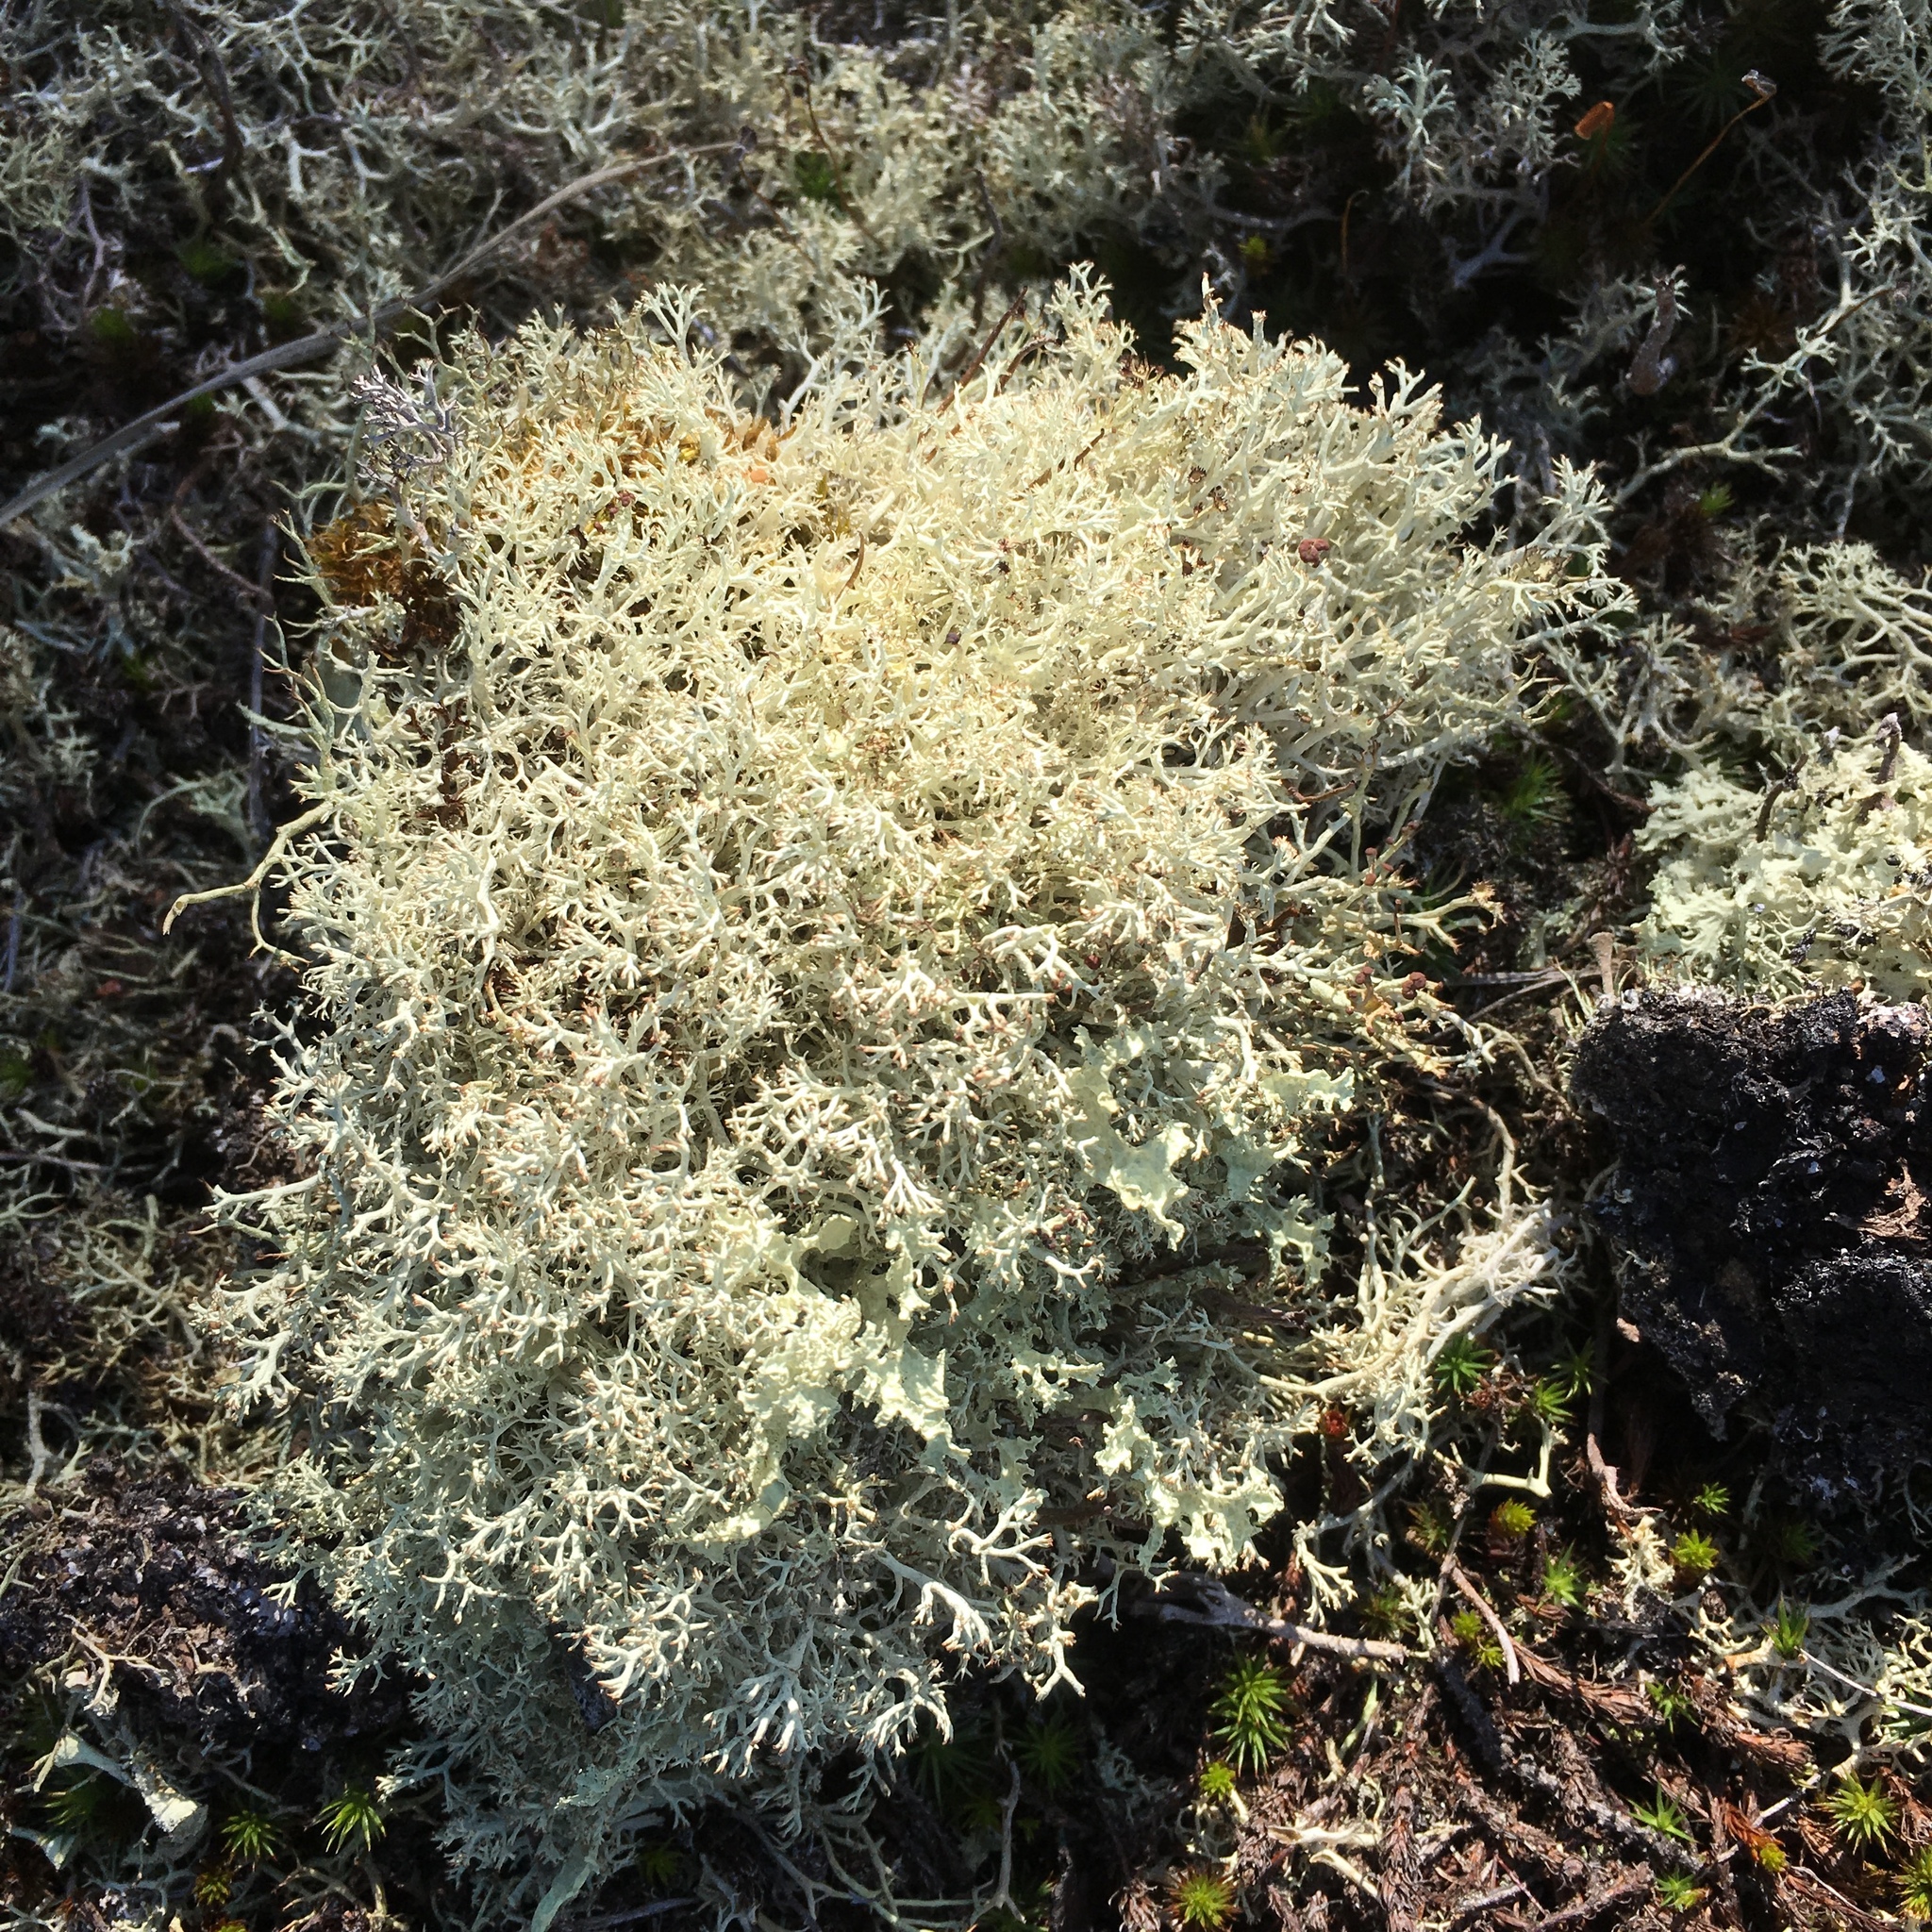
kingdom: Fungi
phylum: Ascomycota
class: Lecanoromycetes
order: Lecanorales
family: Cladoniaceae
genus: Cladonia
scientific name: Cladonia rangiferina
